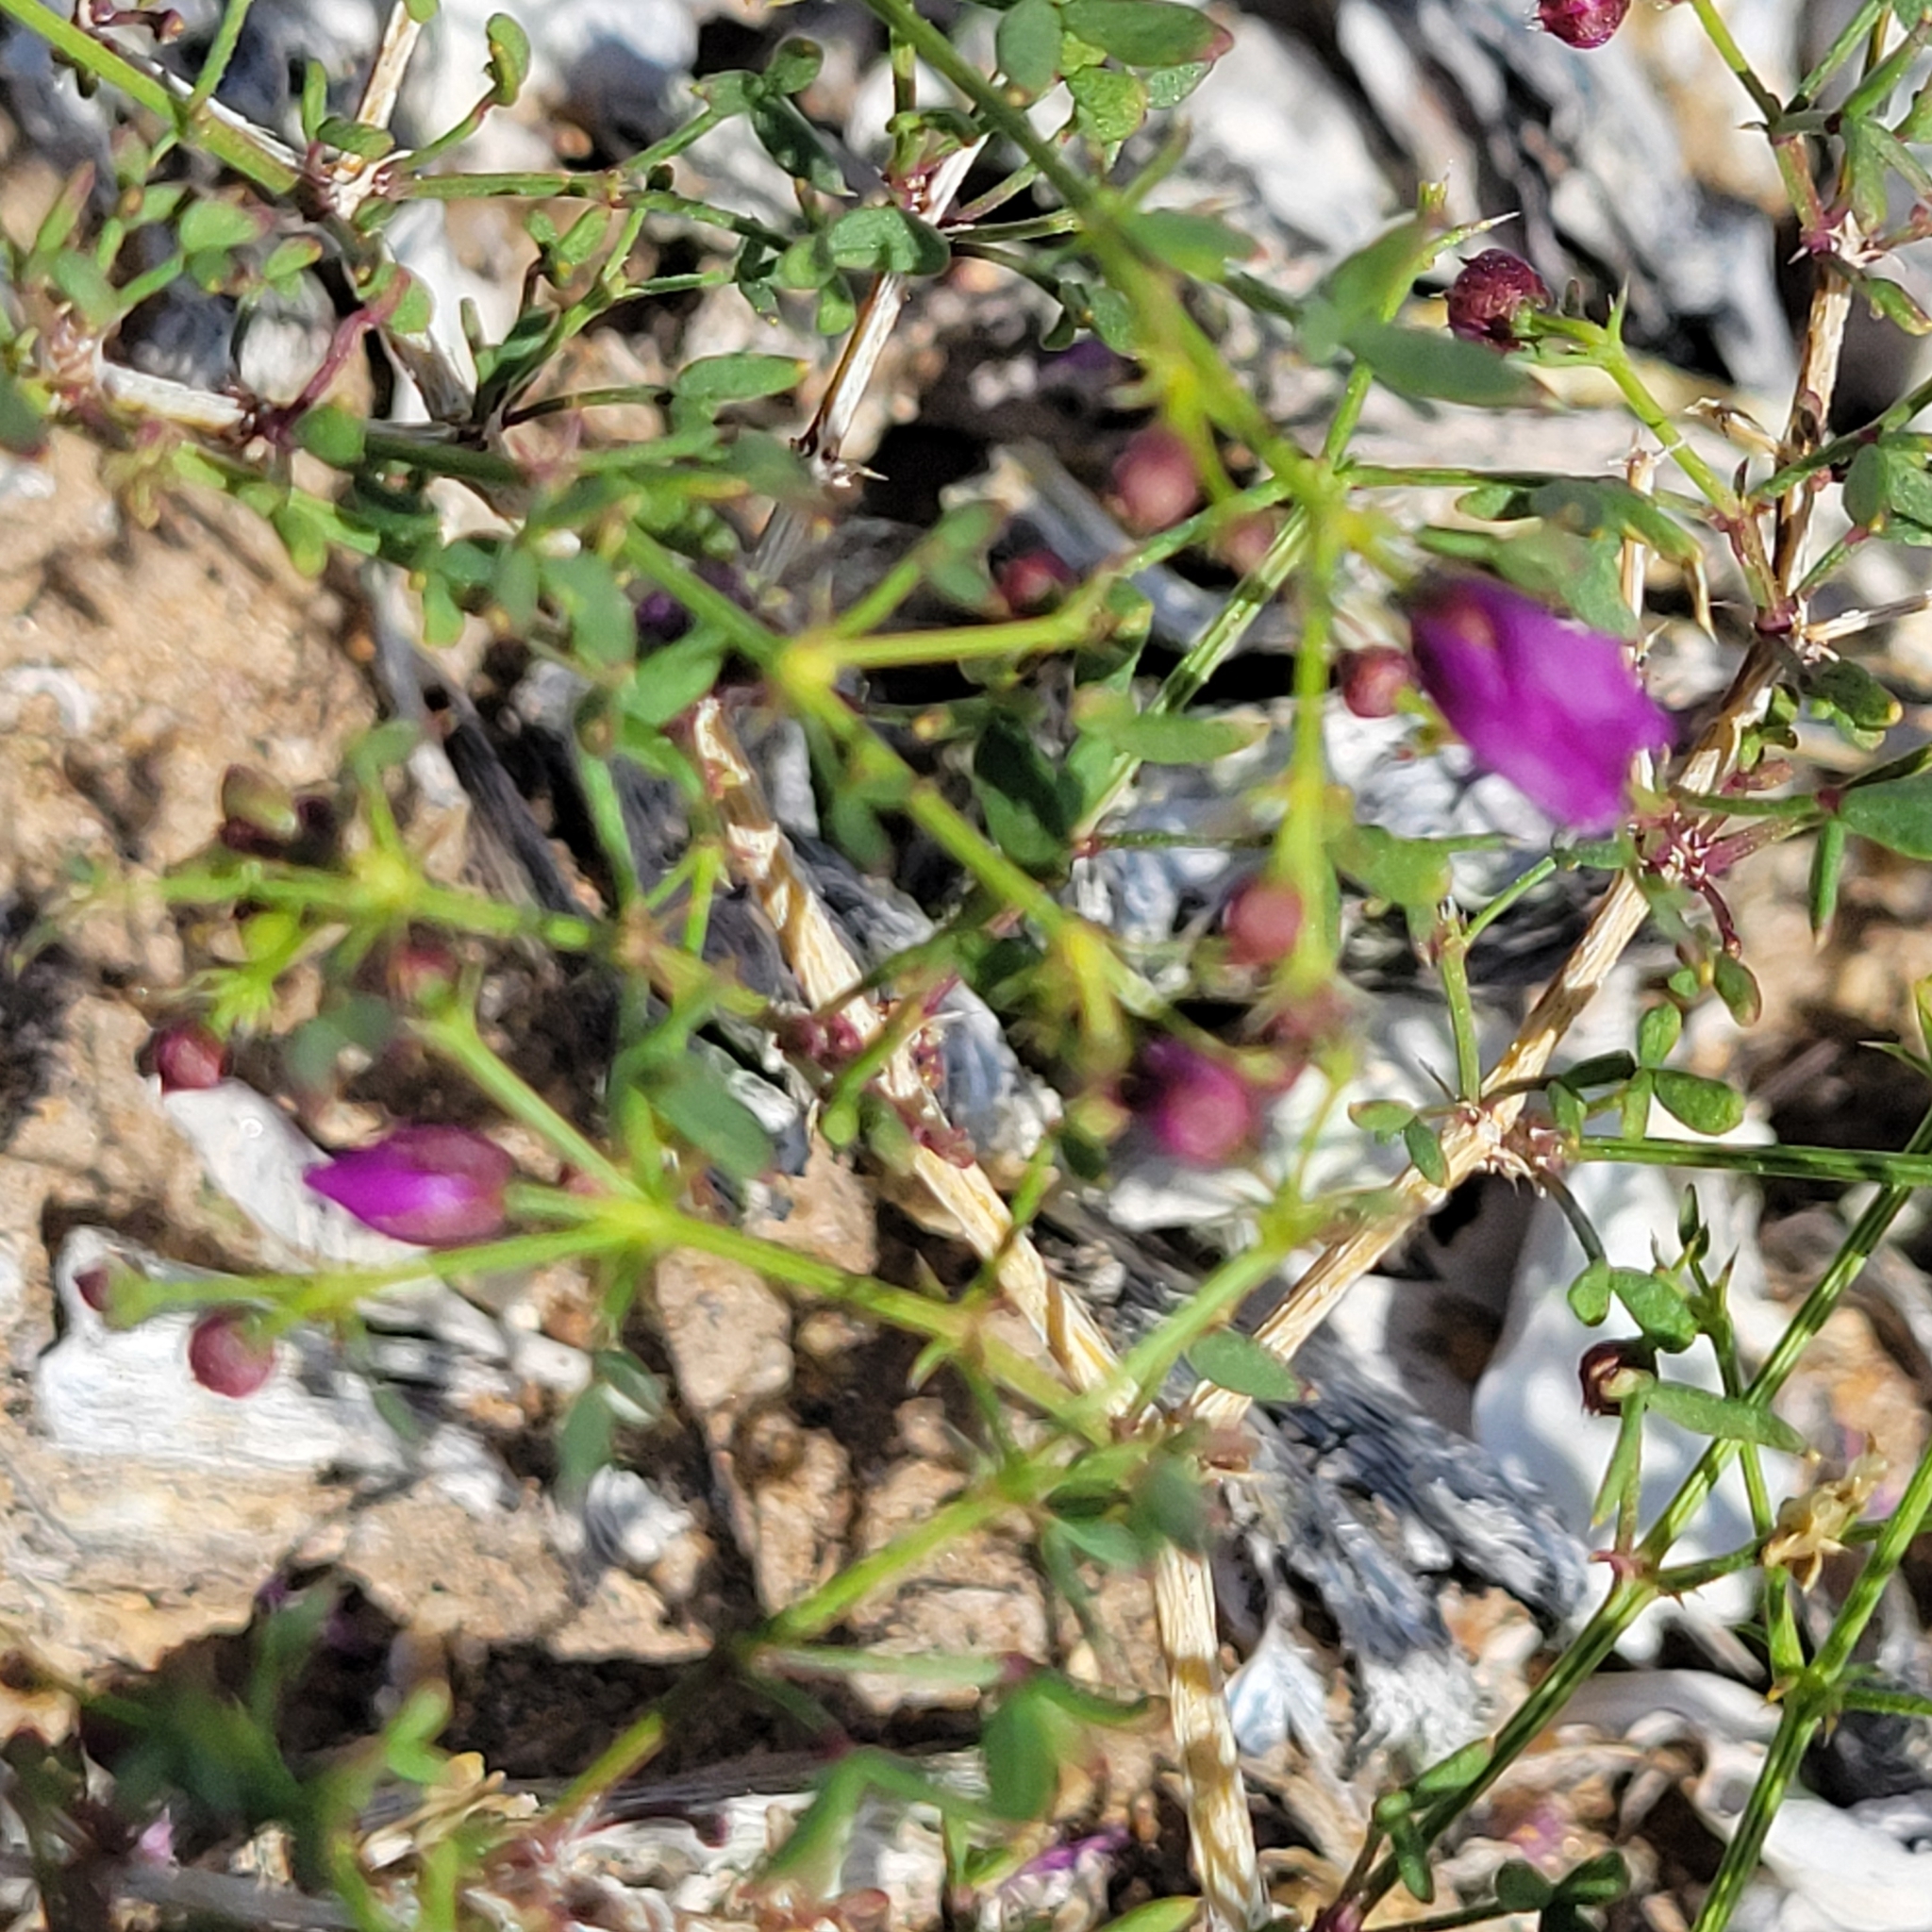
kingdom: Plantae
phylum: Tracheophyta
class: Magnoliopsida
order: Zygophyllales
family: Zygophyllaceae
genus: Fagonia
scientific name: Fagonia laevis
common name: California fagonbush
